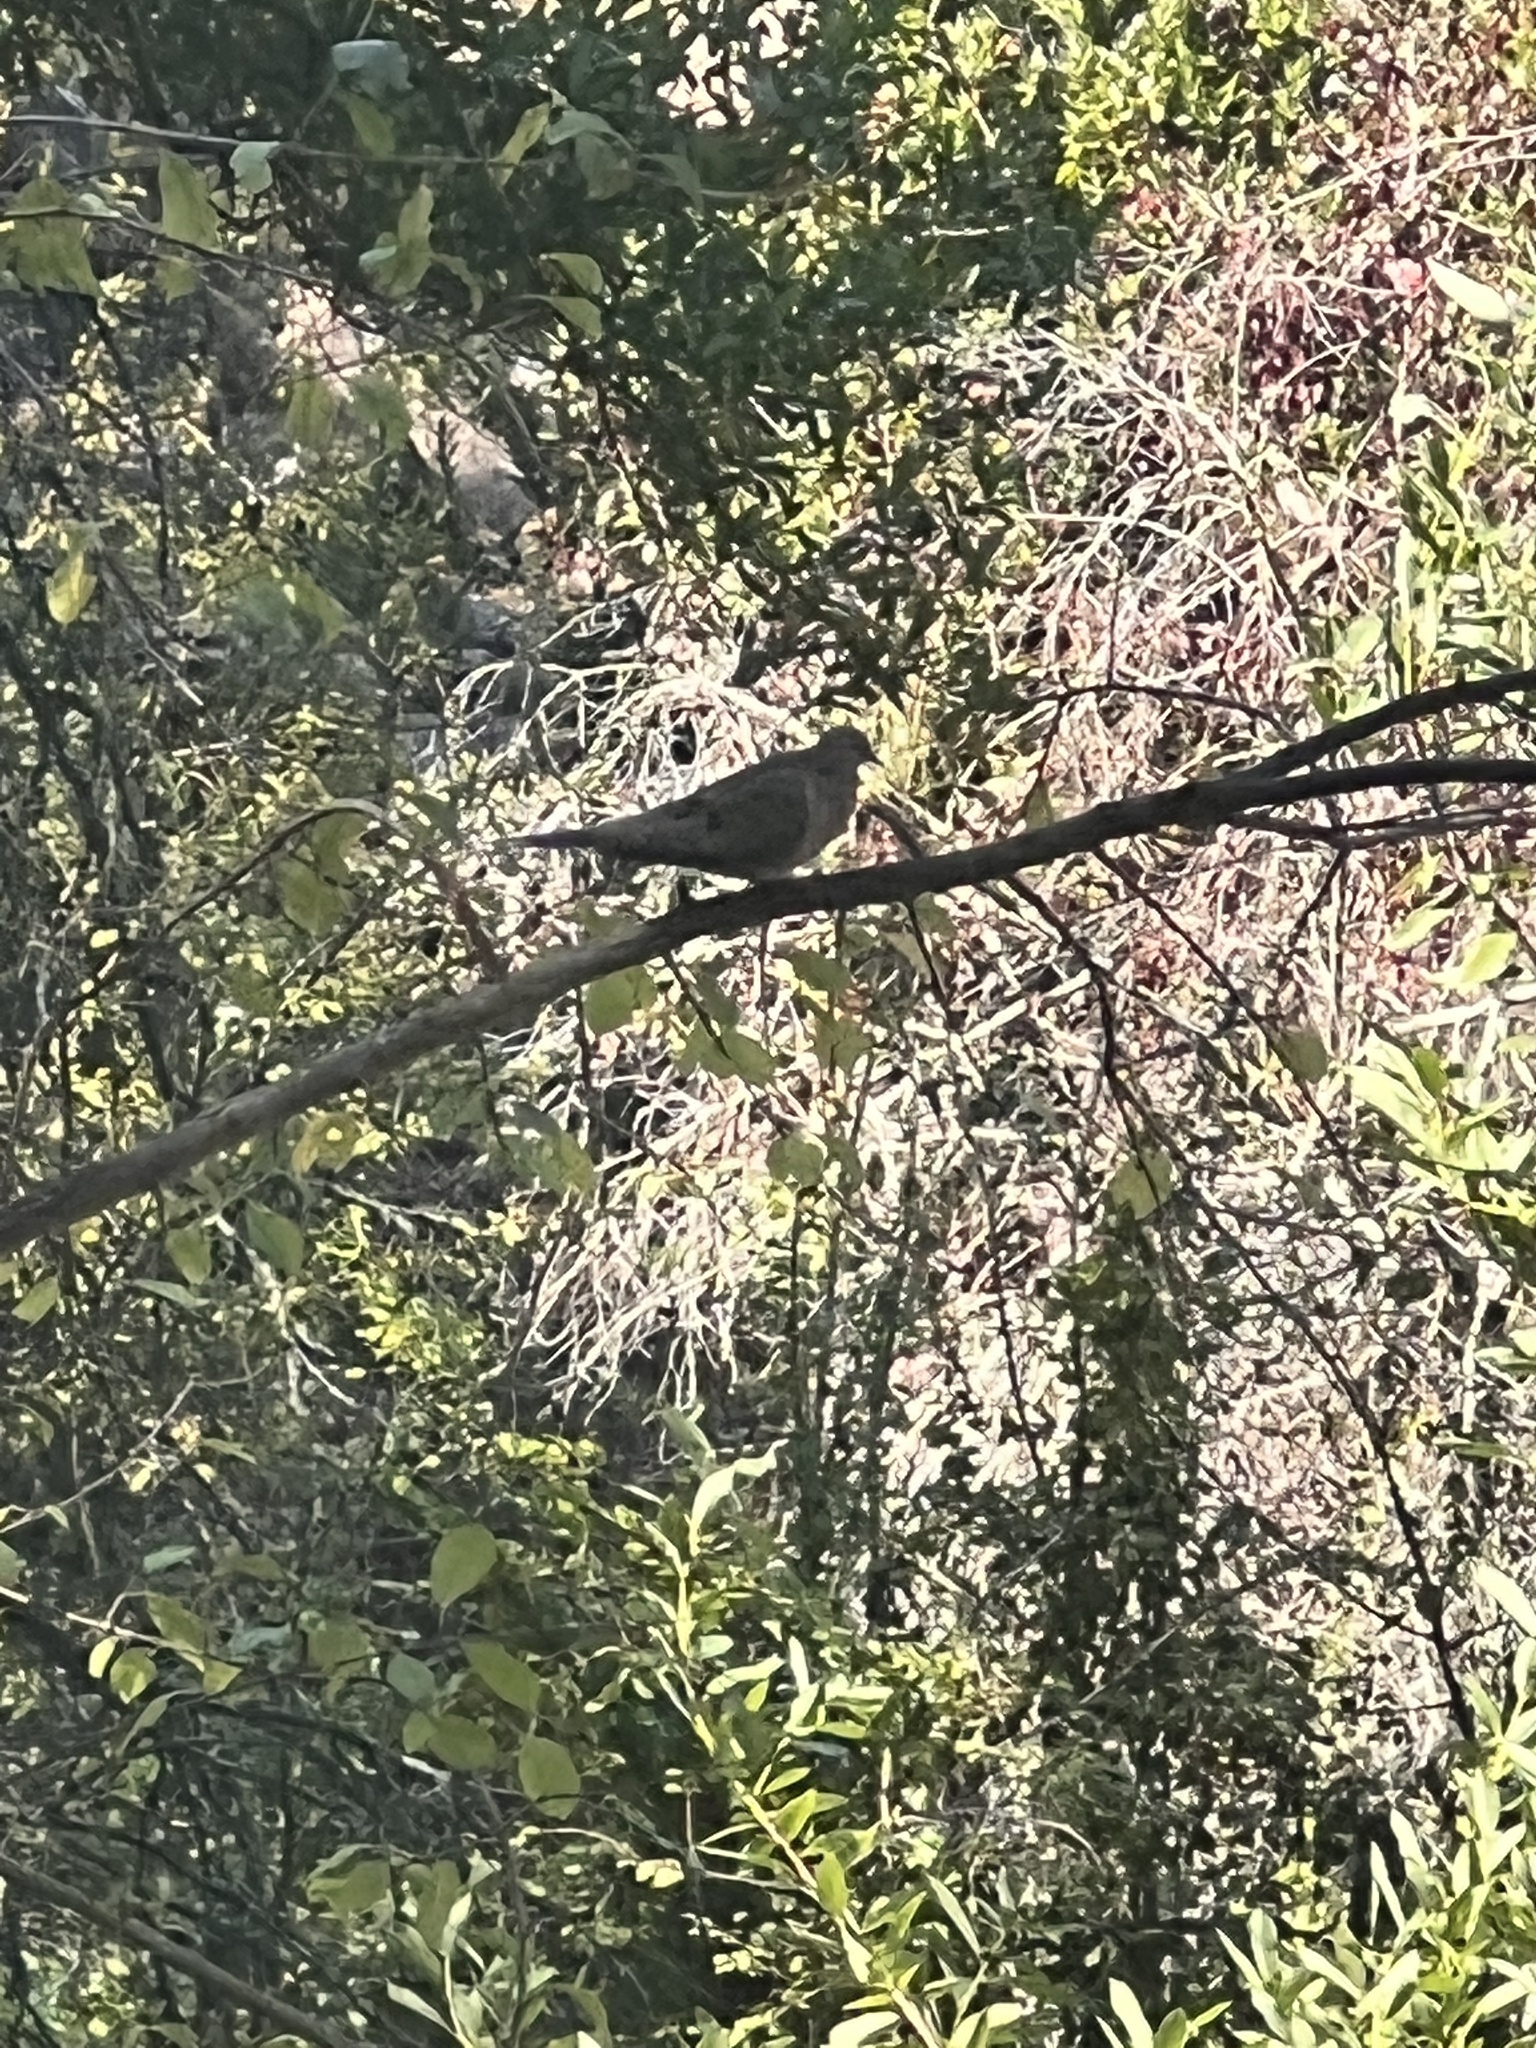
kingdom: Animalia
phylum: Chordata
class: Aves
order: Columbiformes
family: Columbidae
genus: Zenaida
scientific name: Zenaida macroura
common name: Mourning dove
